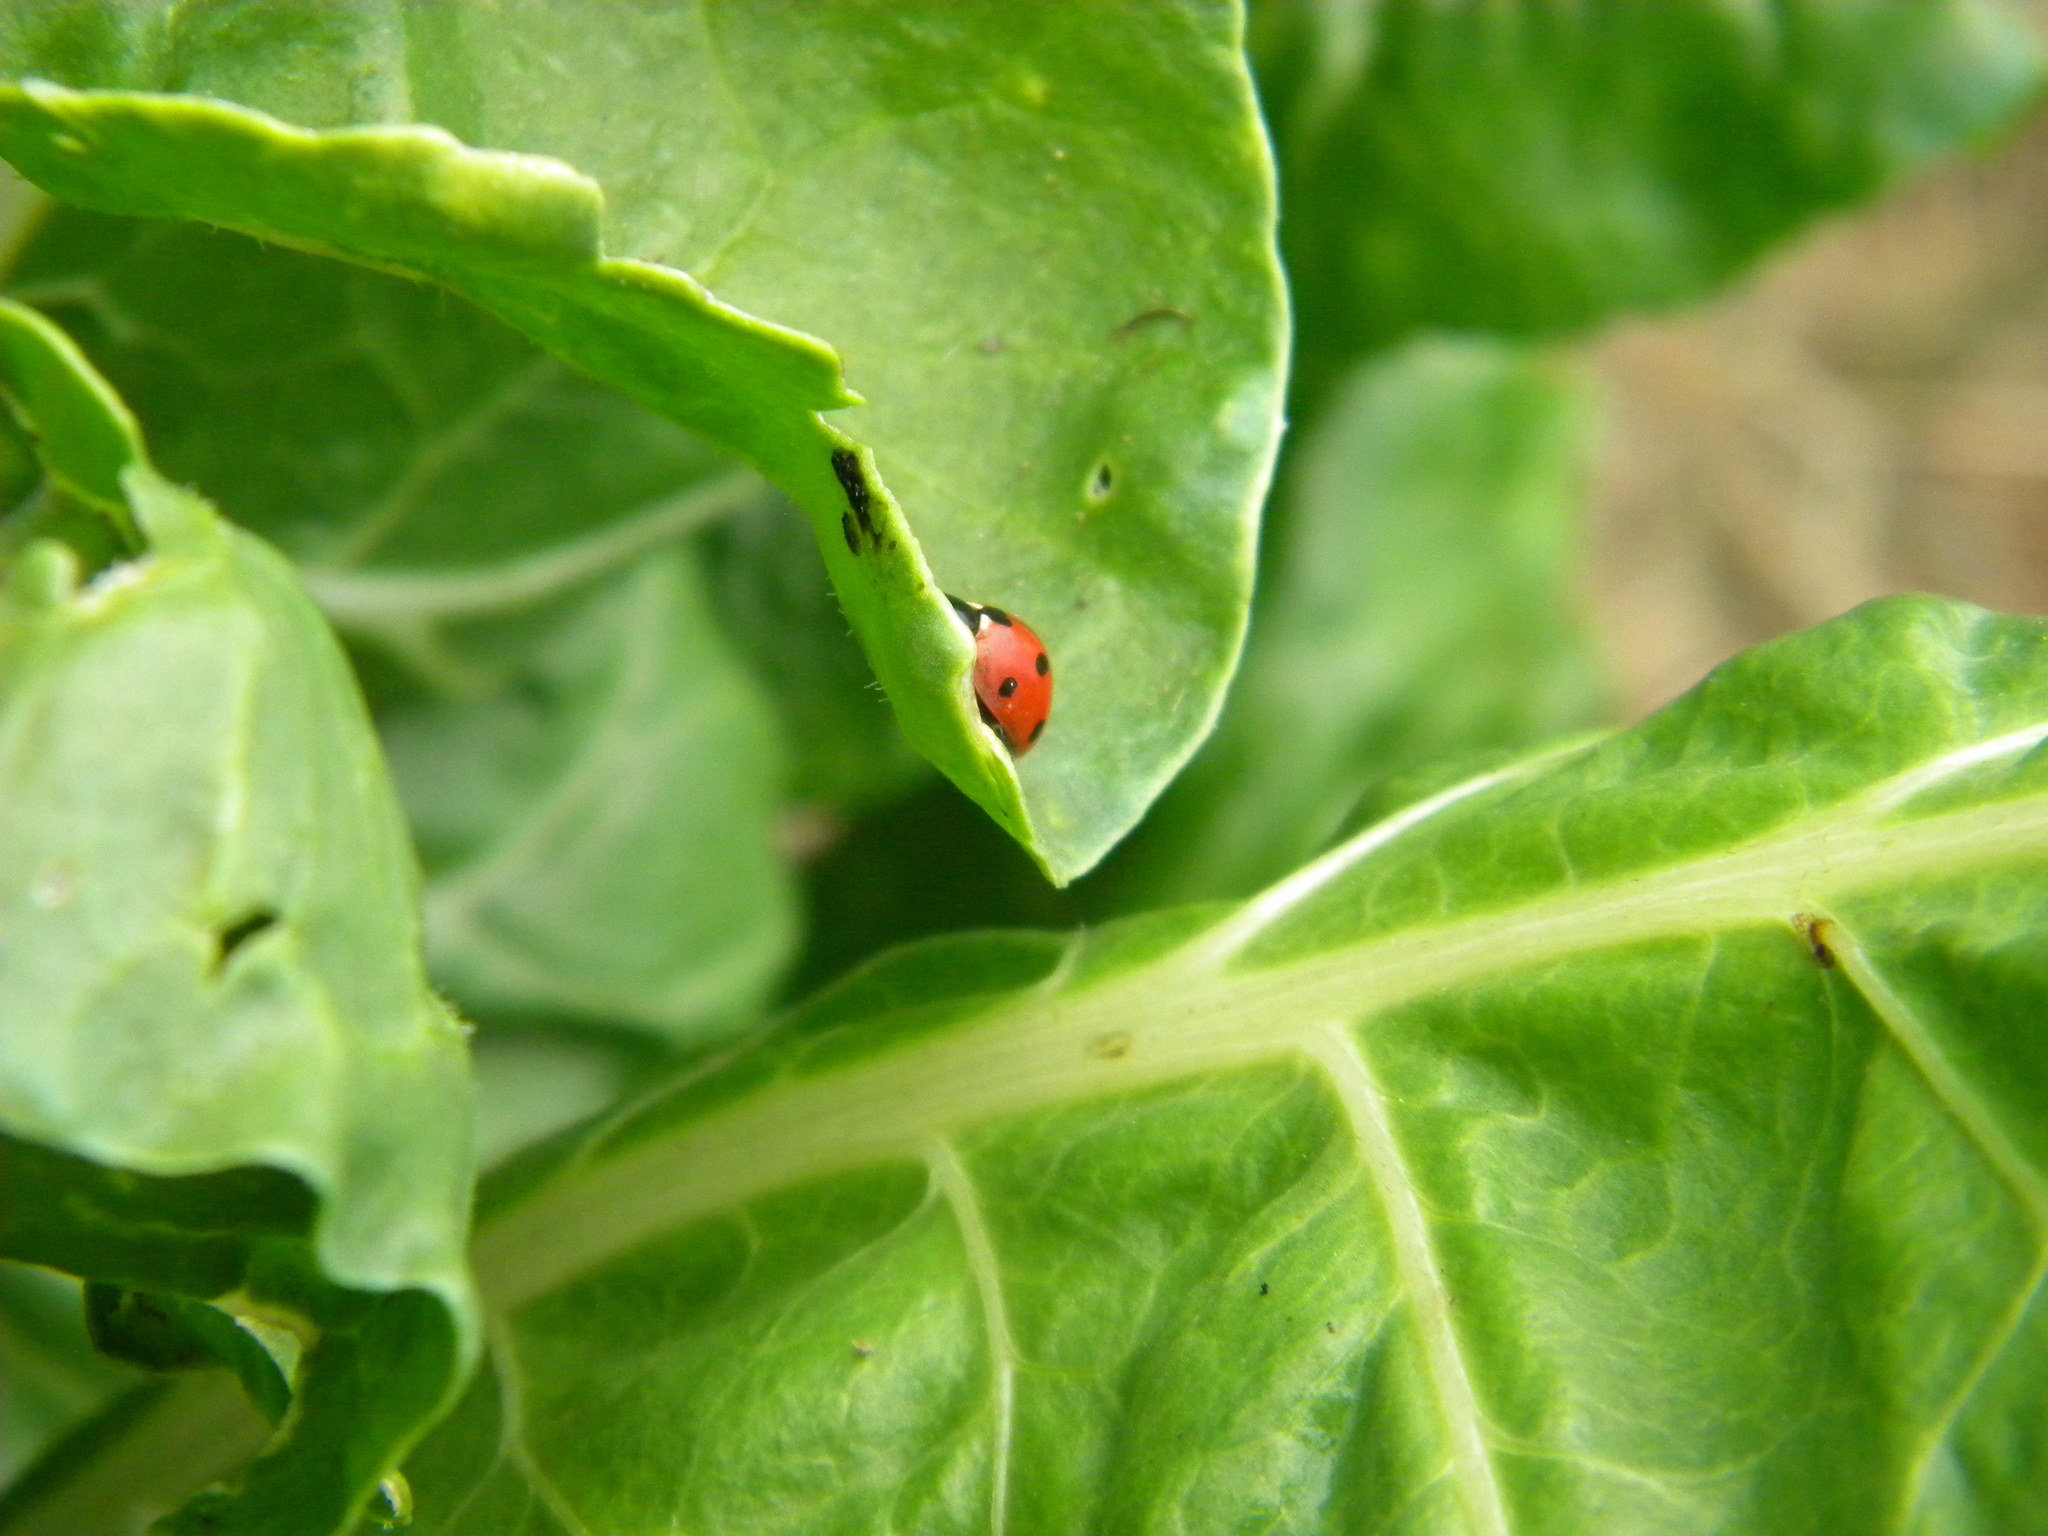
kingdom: Animalia
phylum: Arthropoda
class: Insecta
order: Coleoptera
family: Coccinellidae
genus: Coccinella
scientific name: Coccinella septempunctata
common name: Sevenspotted lady beetle
